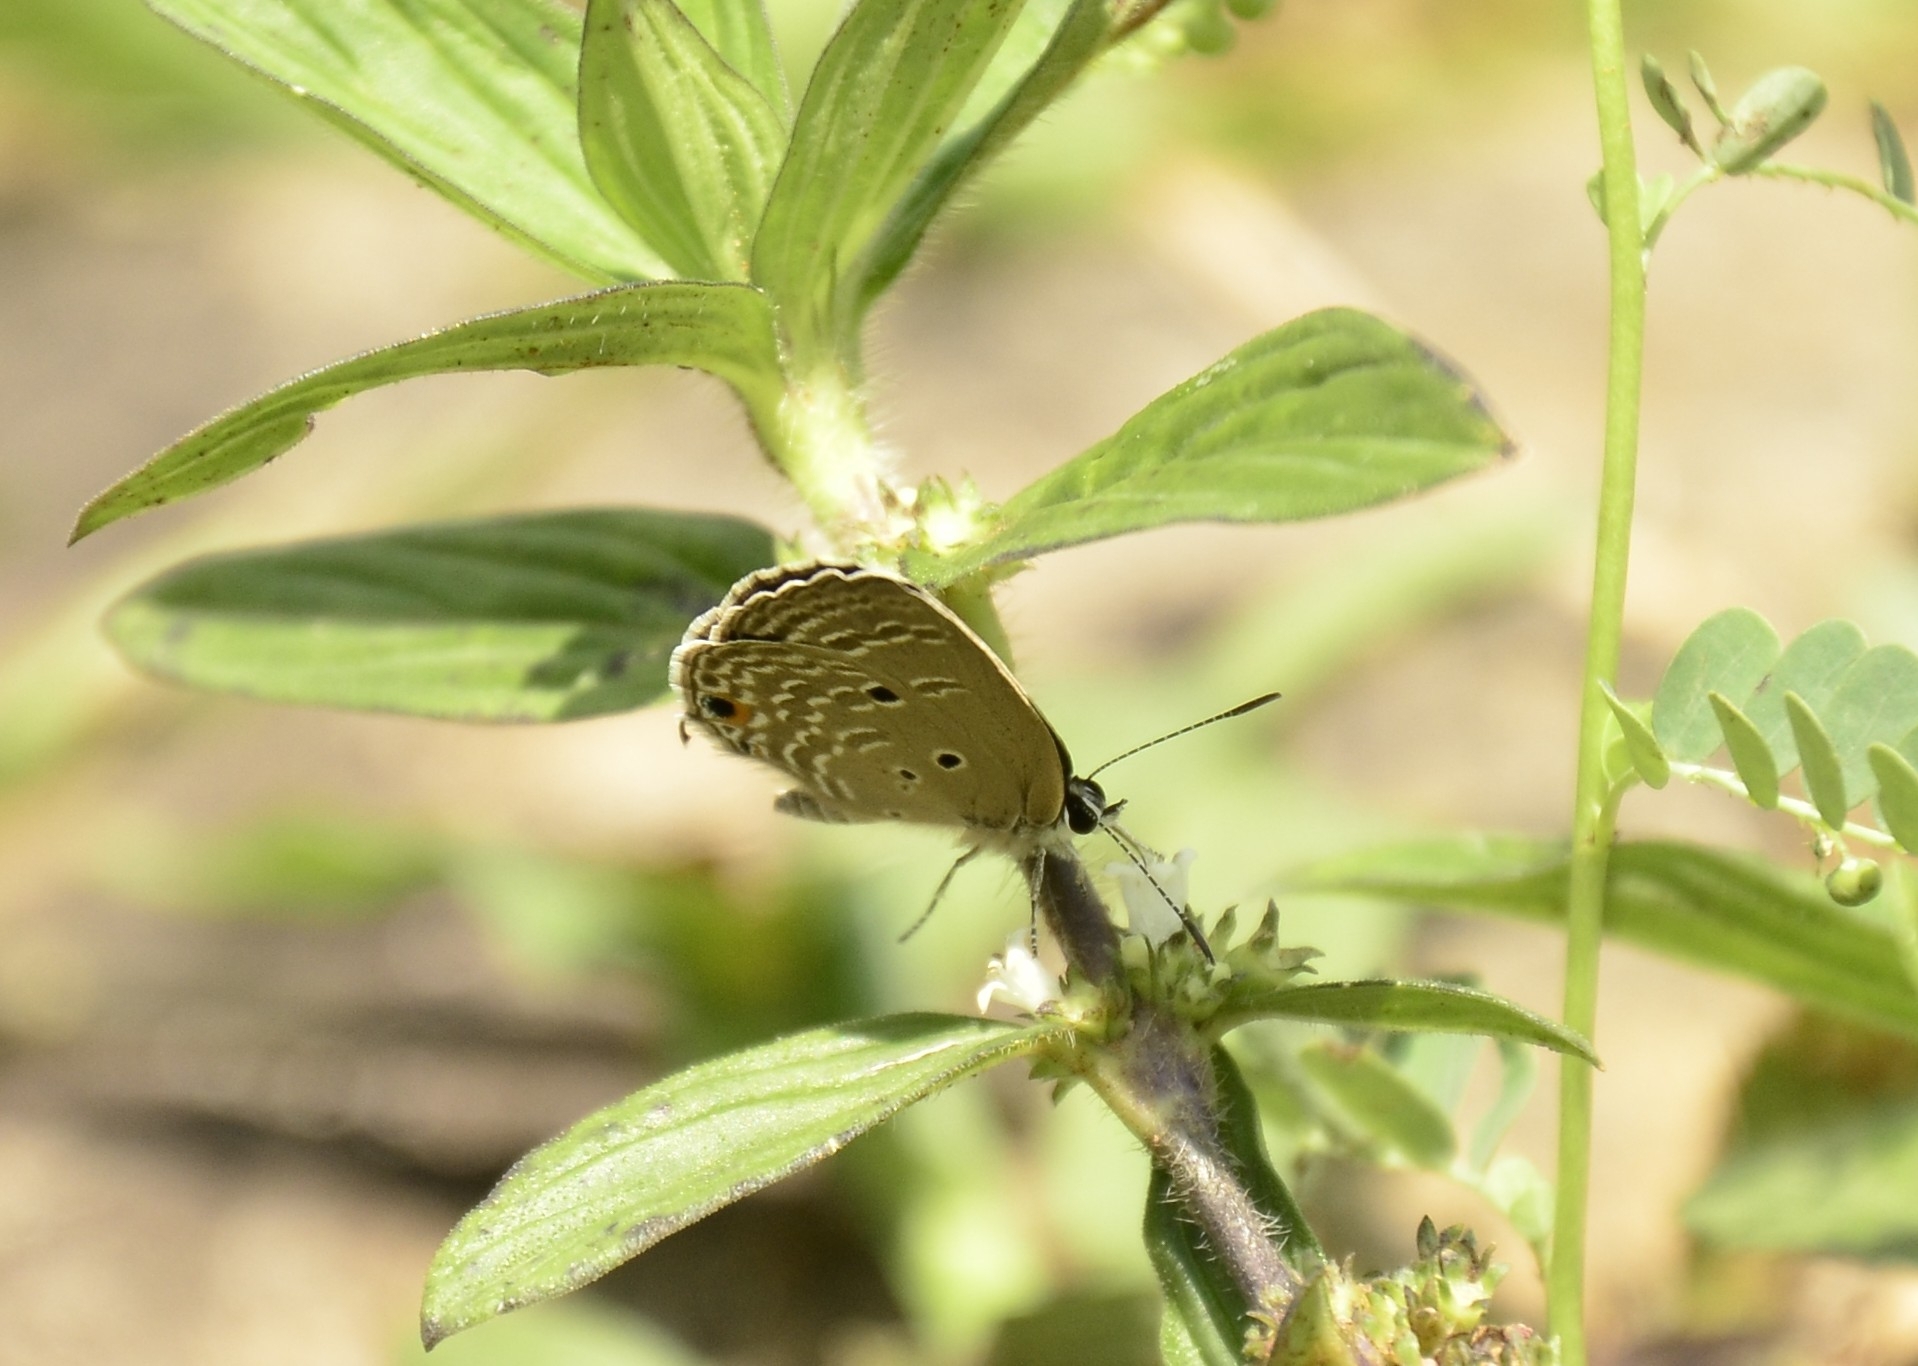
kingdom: Animalia
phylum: Arthropoda
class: Insecta
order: Lepidoptera
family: Lycaenidae
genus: Luthrodes
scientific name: Luthrodes pandava
